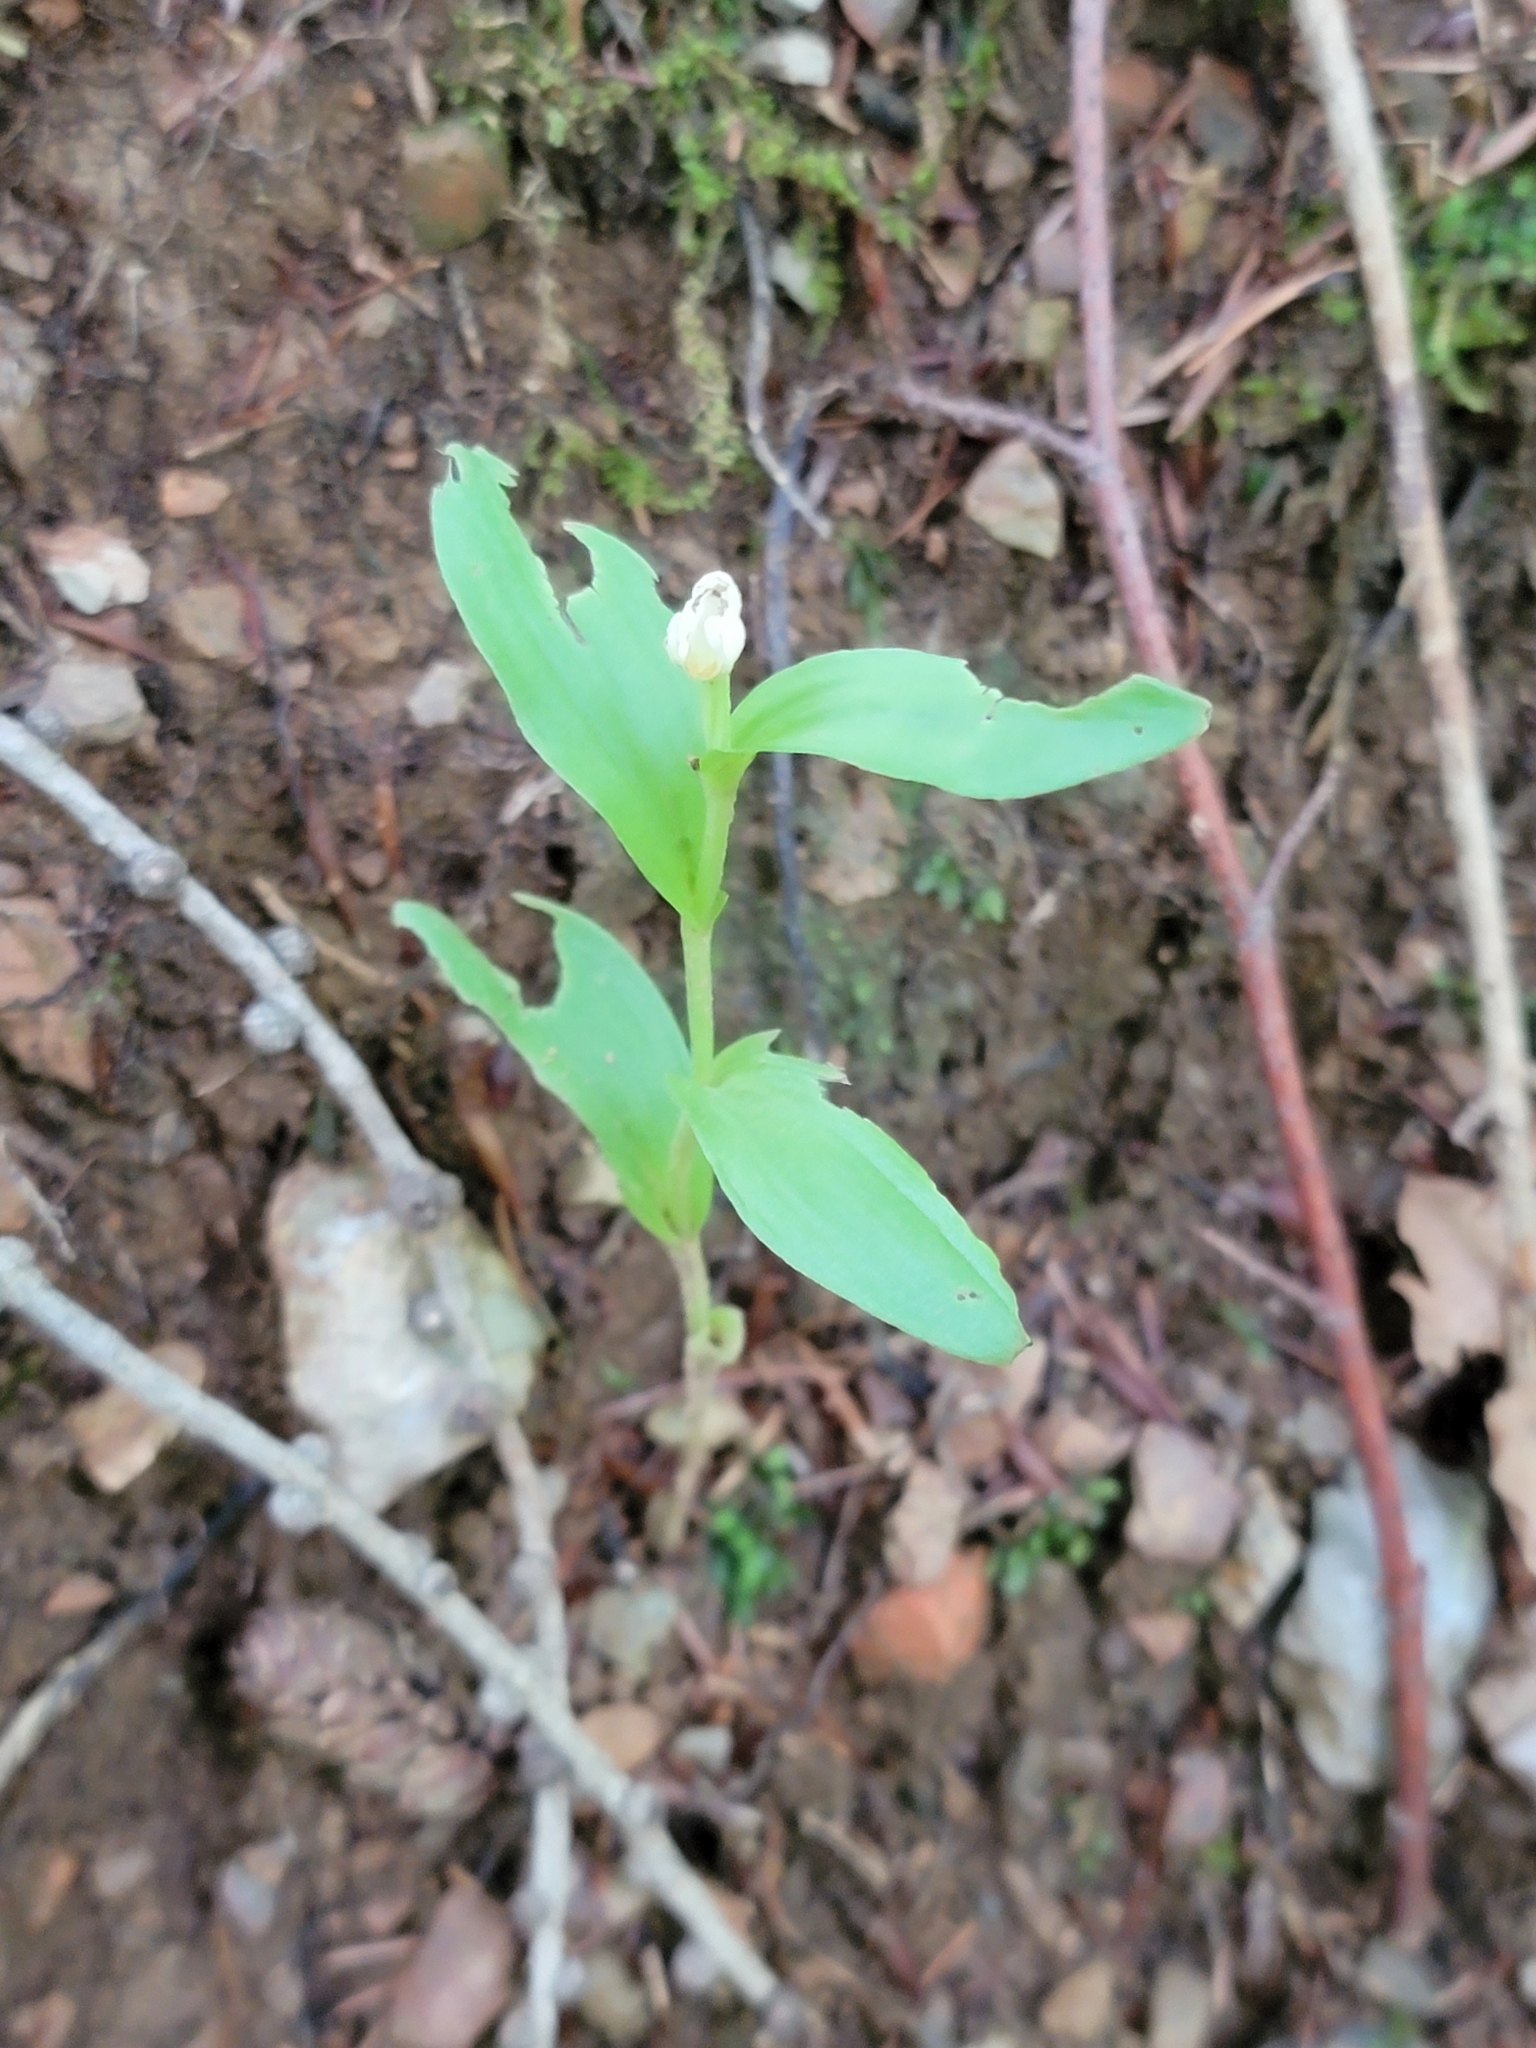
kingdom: Plantae
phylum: Tracheophyta
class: Liliopsida
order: Asparagales
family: Orchidaceae
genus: Cephalanthera
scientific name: Cephalanthera damasonium
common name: White helleborine
